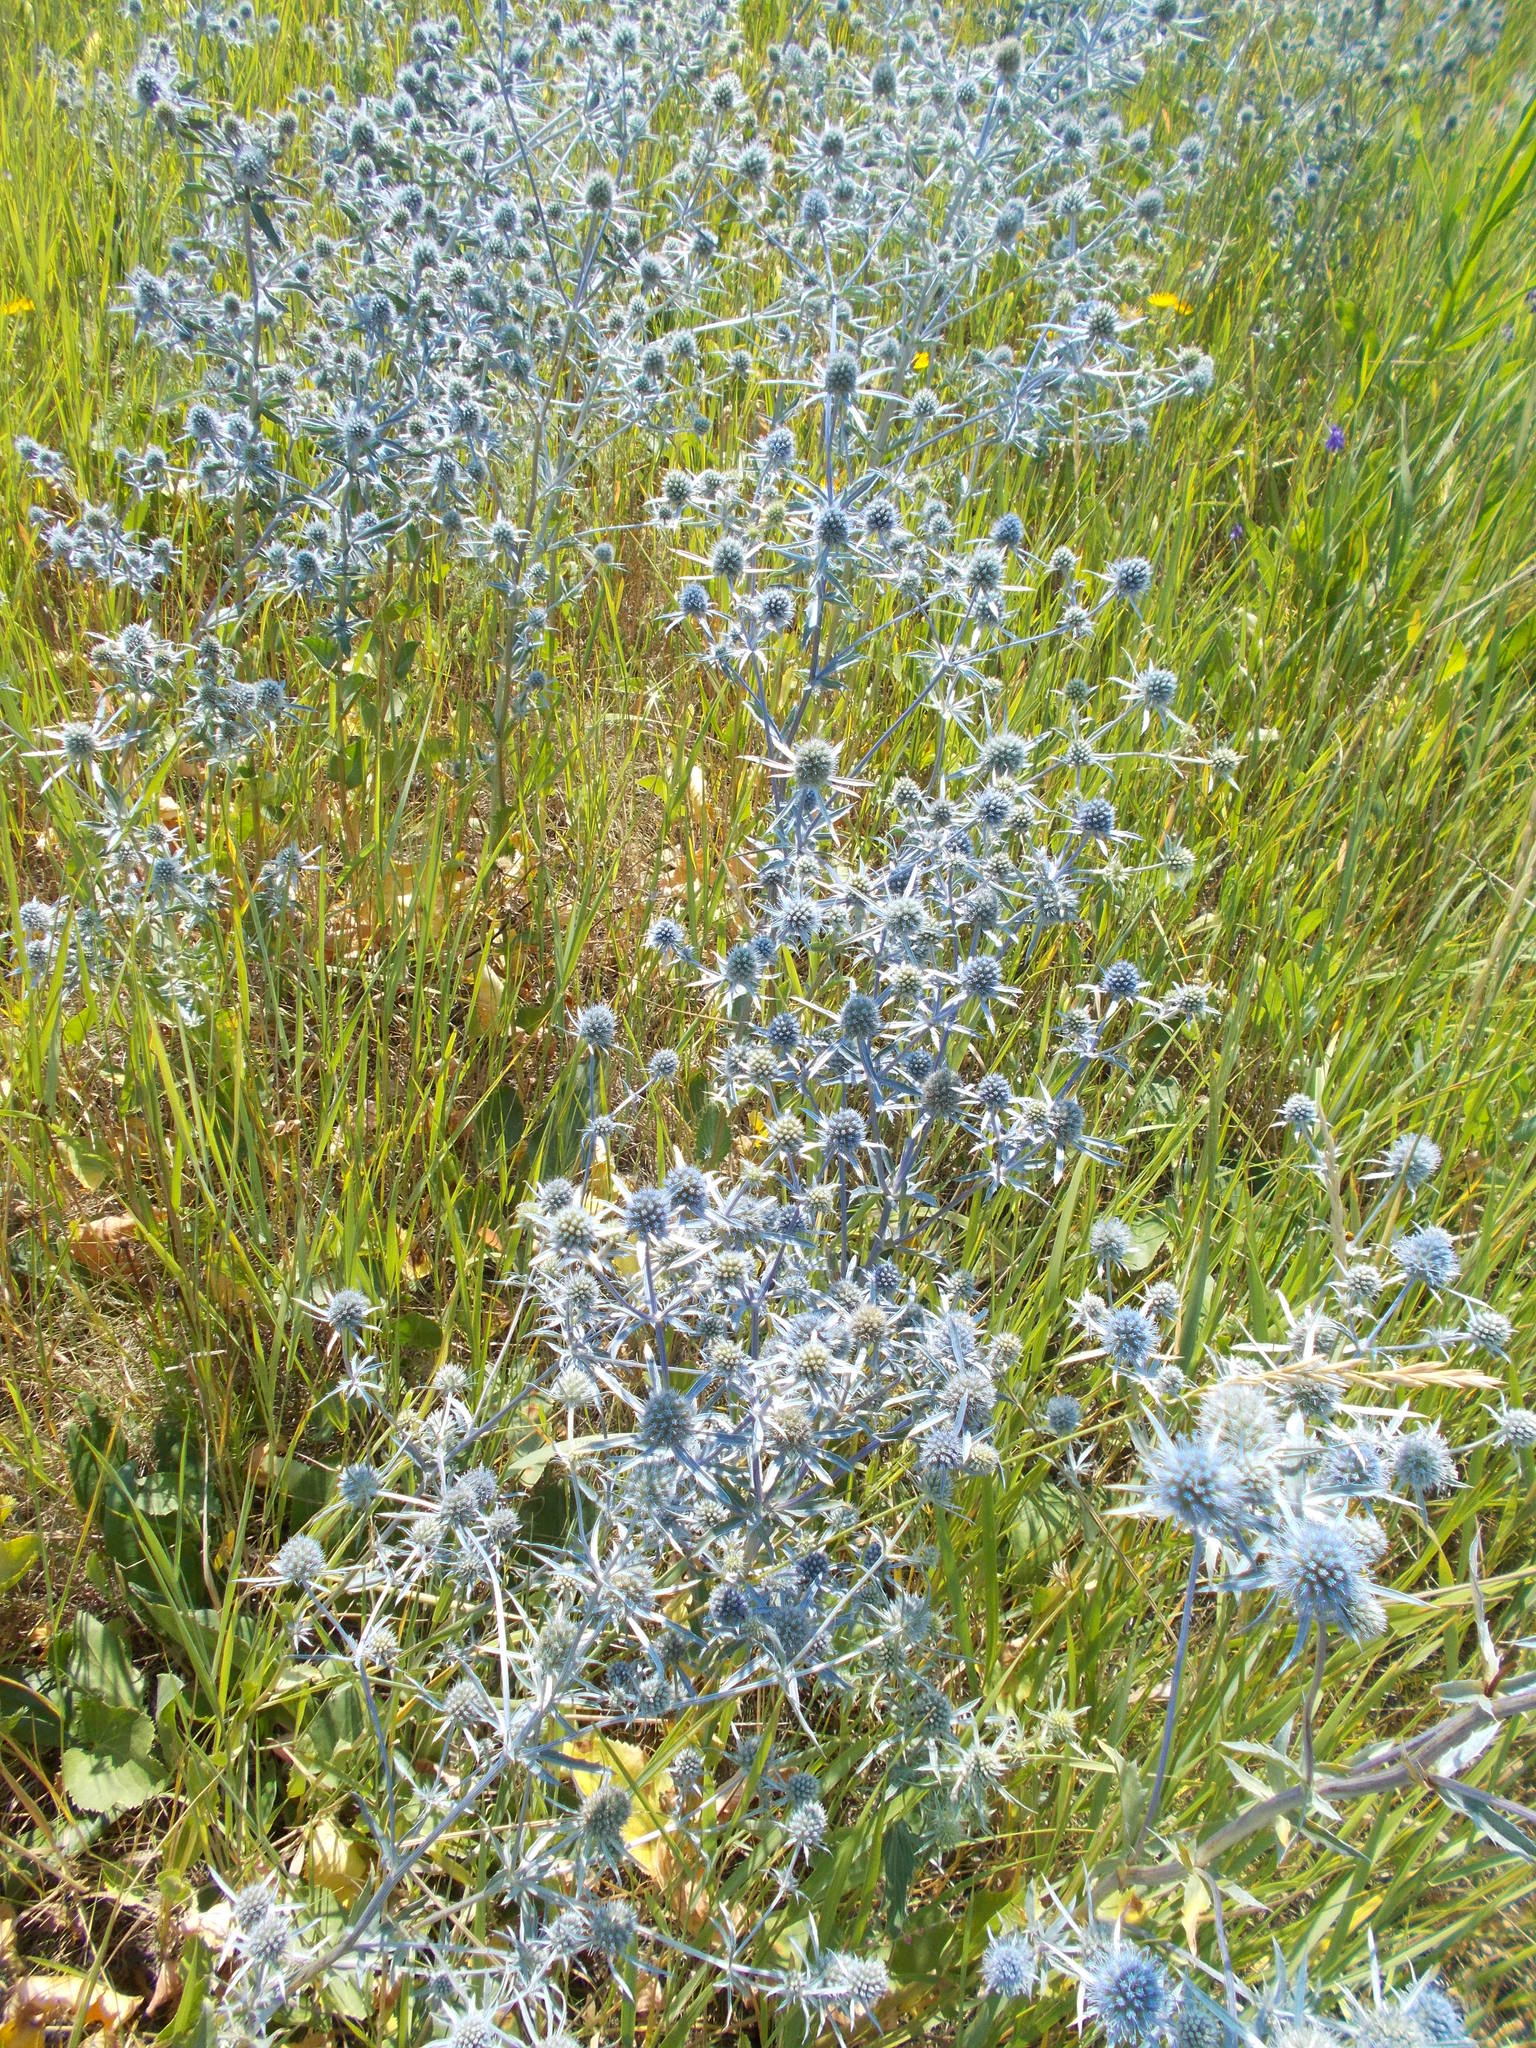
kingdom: Plantae
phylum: Tracheophyta
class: Magnoliopsida
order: Apiales
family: Apiaceae
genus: Eryngium
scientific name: Eryngium planum
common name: Blue eryngo
